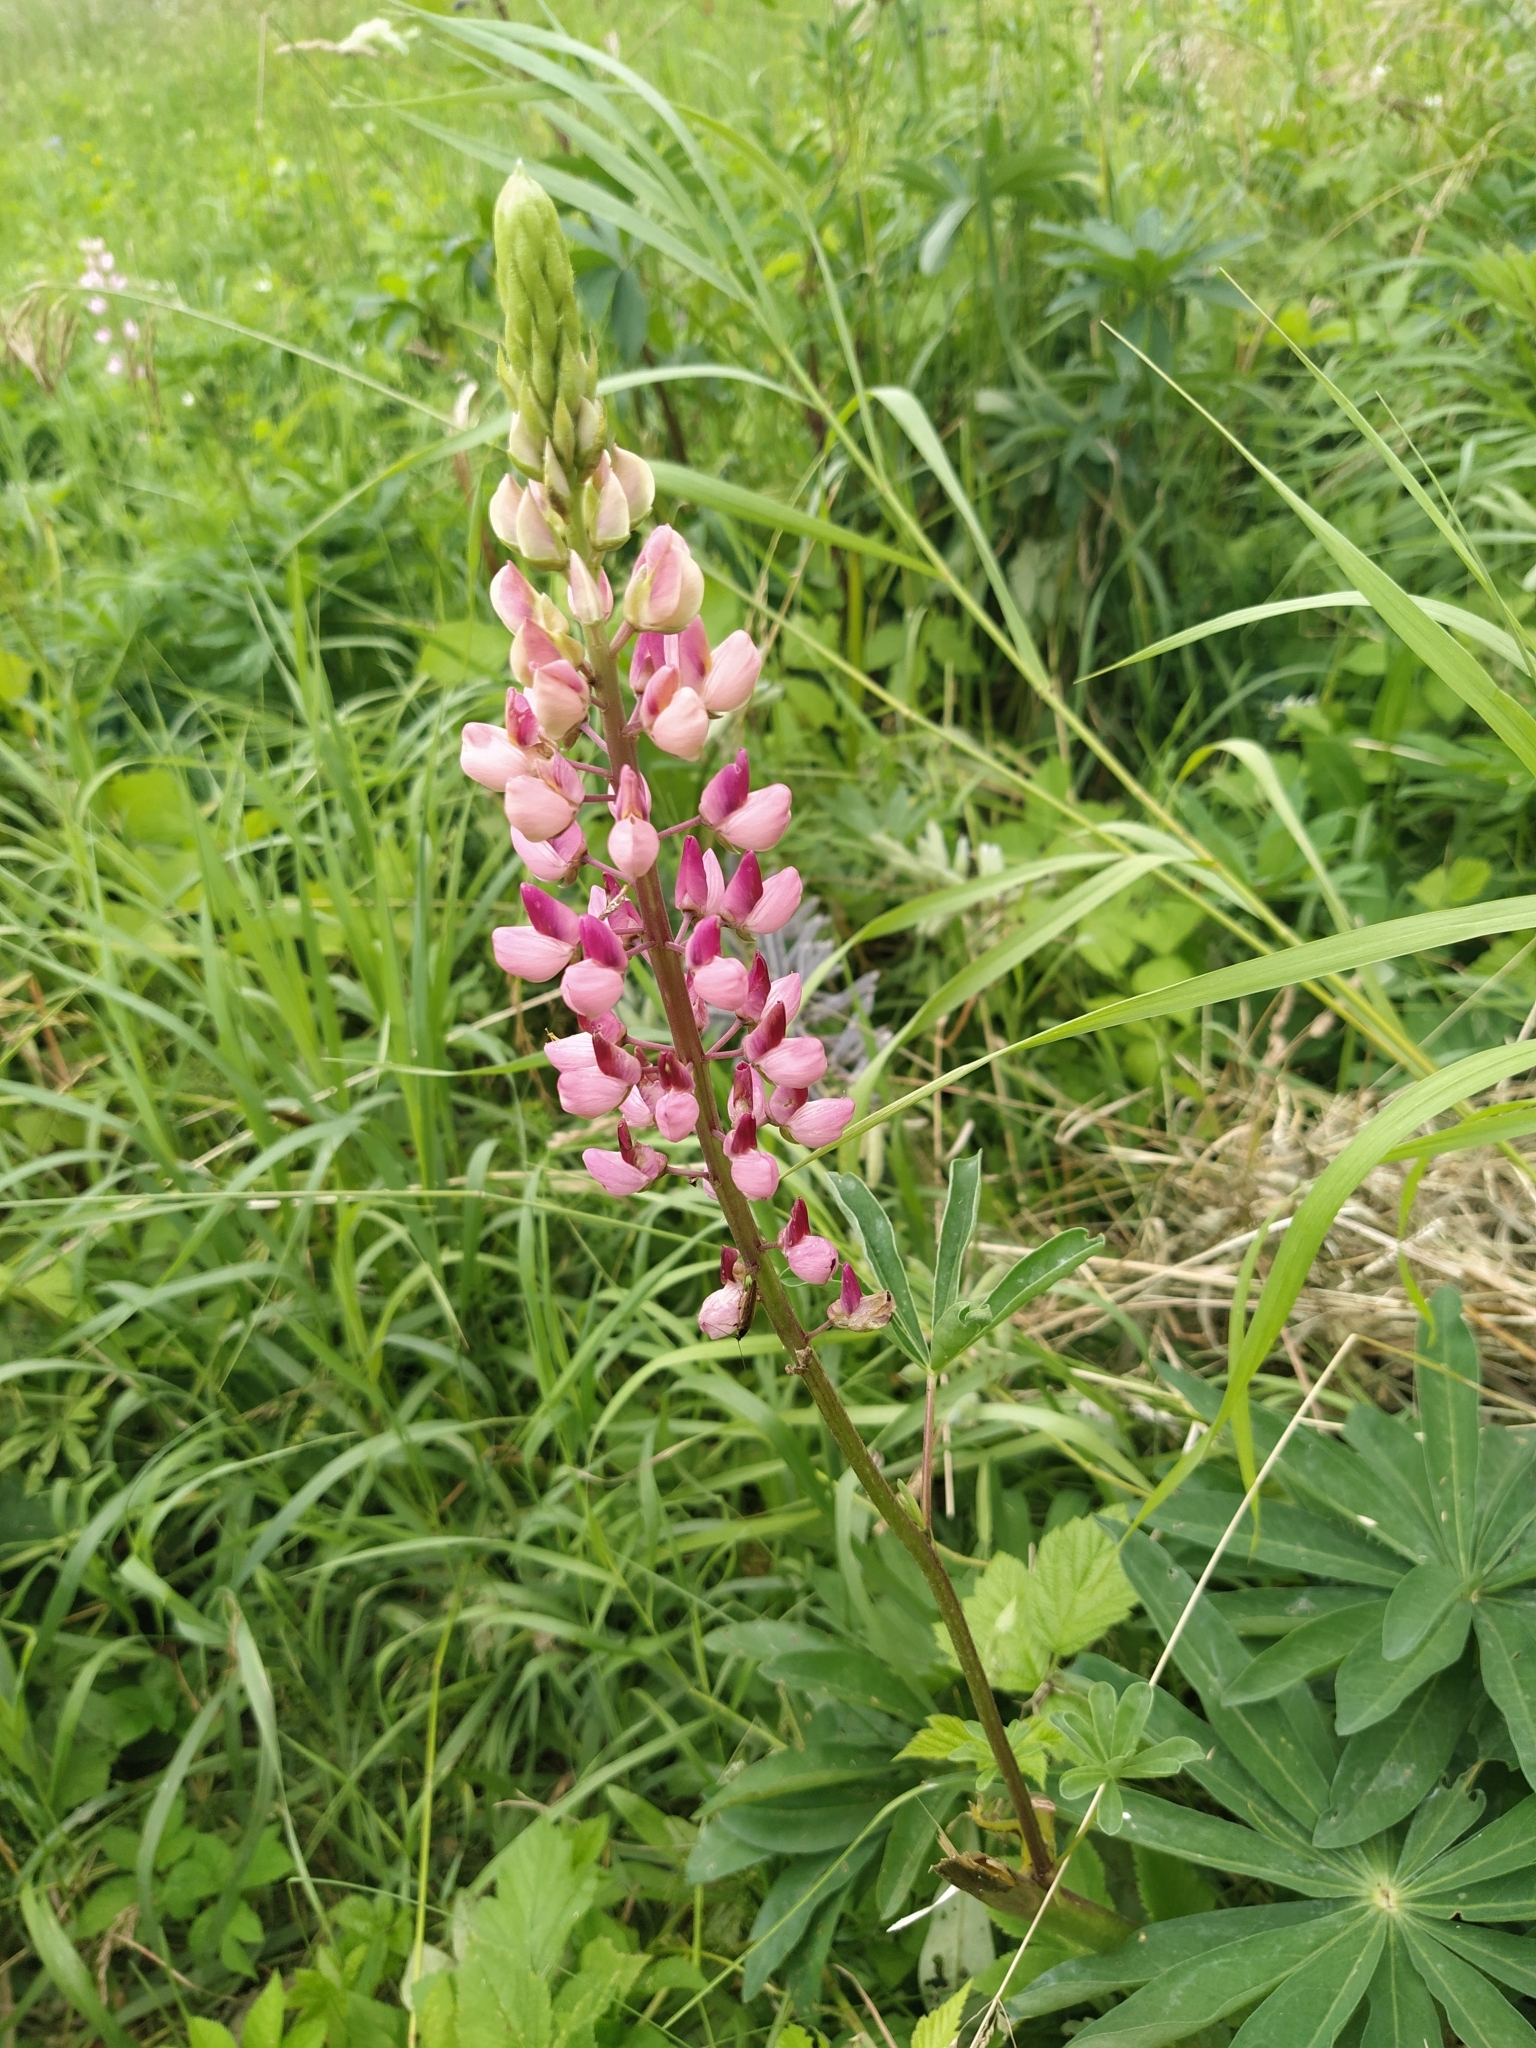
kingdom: Plantae
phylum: Tracheophyta
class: Magnoliopsida
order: Fabales
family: Fabaceae
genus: Lupinus
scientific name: Lupinus polyphyllus
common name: Garden lupin
